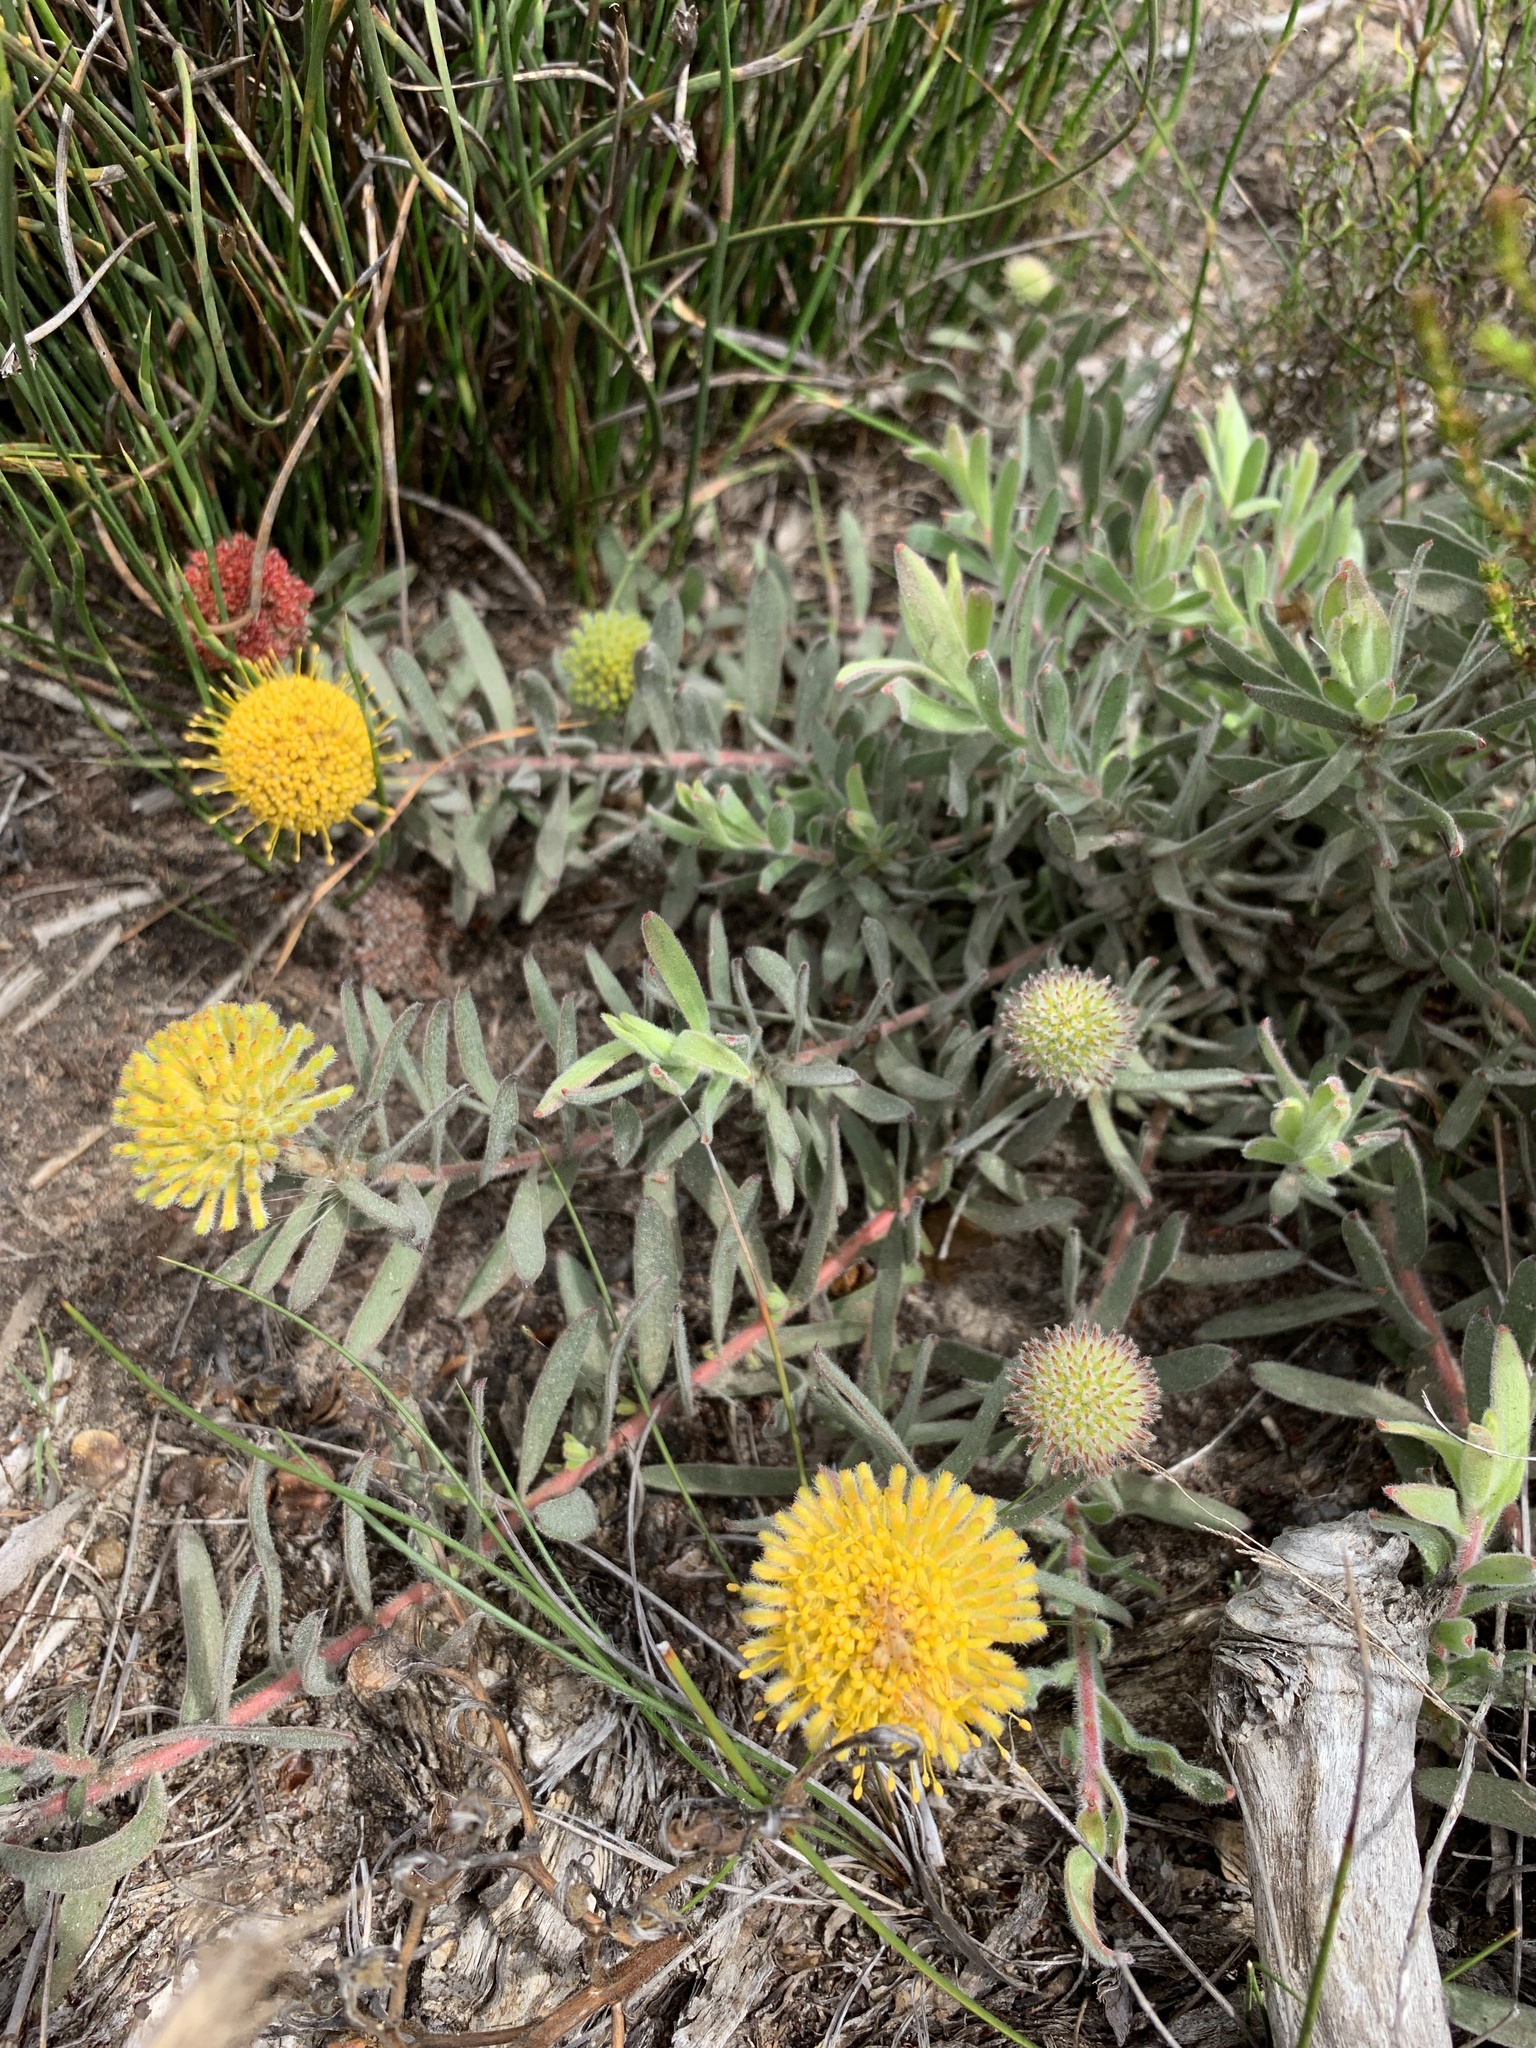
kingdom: Plantae
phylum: Tracheophyta
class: Magnoliopsida
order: Proteales
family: Proteaceae
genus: Leucospermum
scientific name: Leucospermum prostratum
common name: Yellow-trailing pincushion
